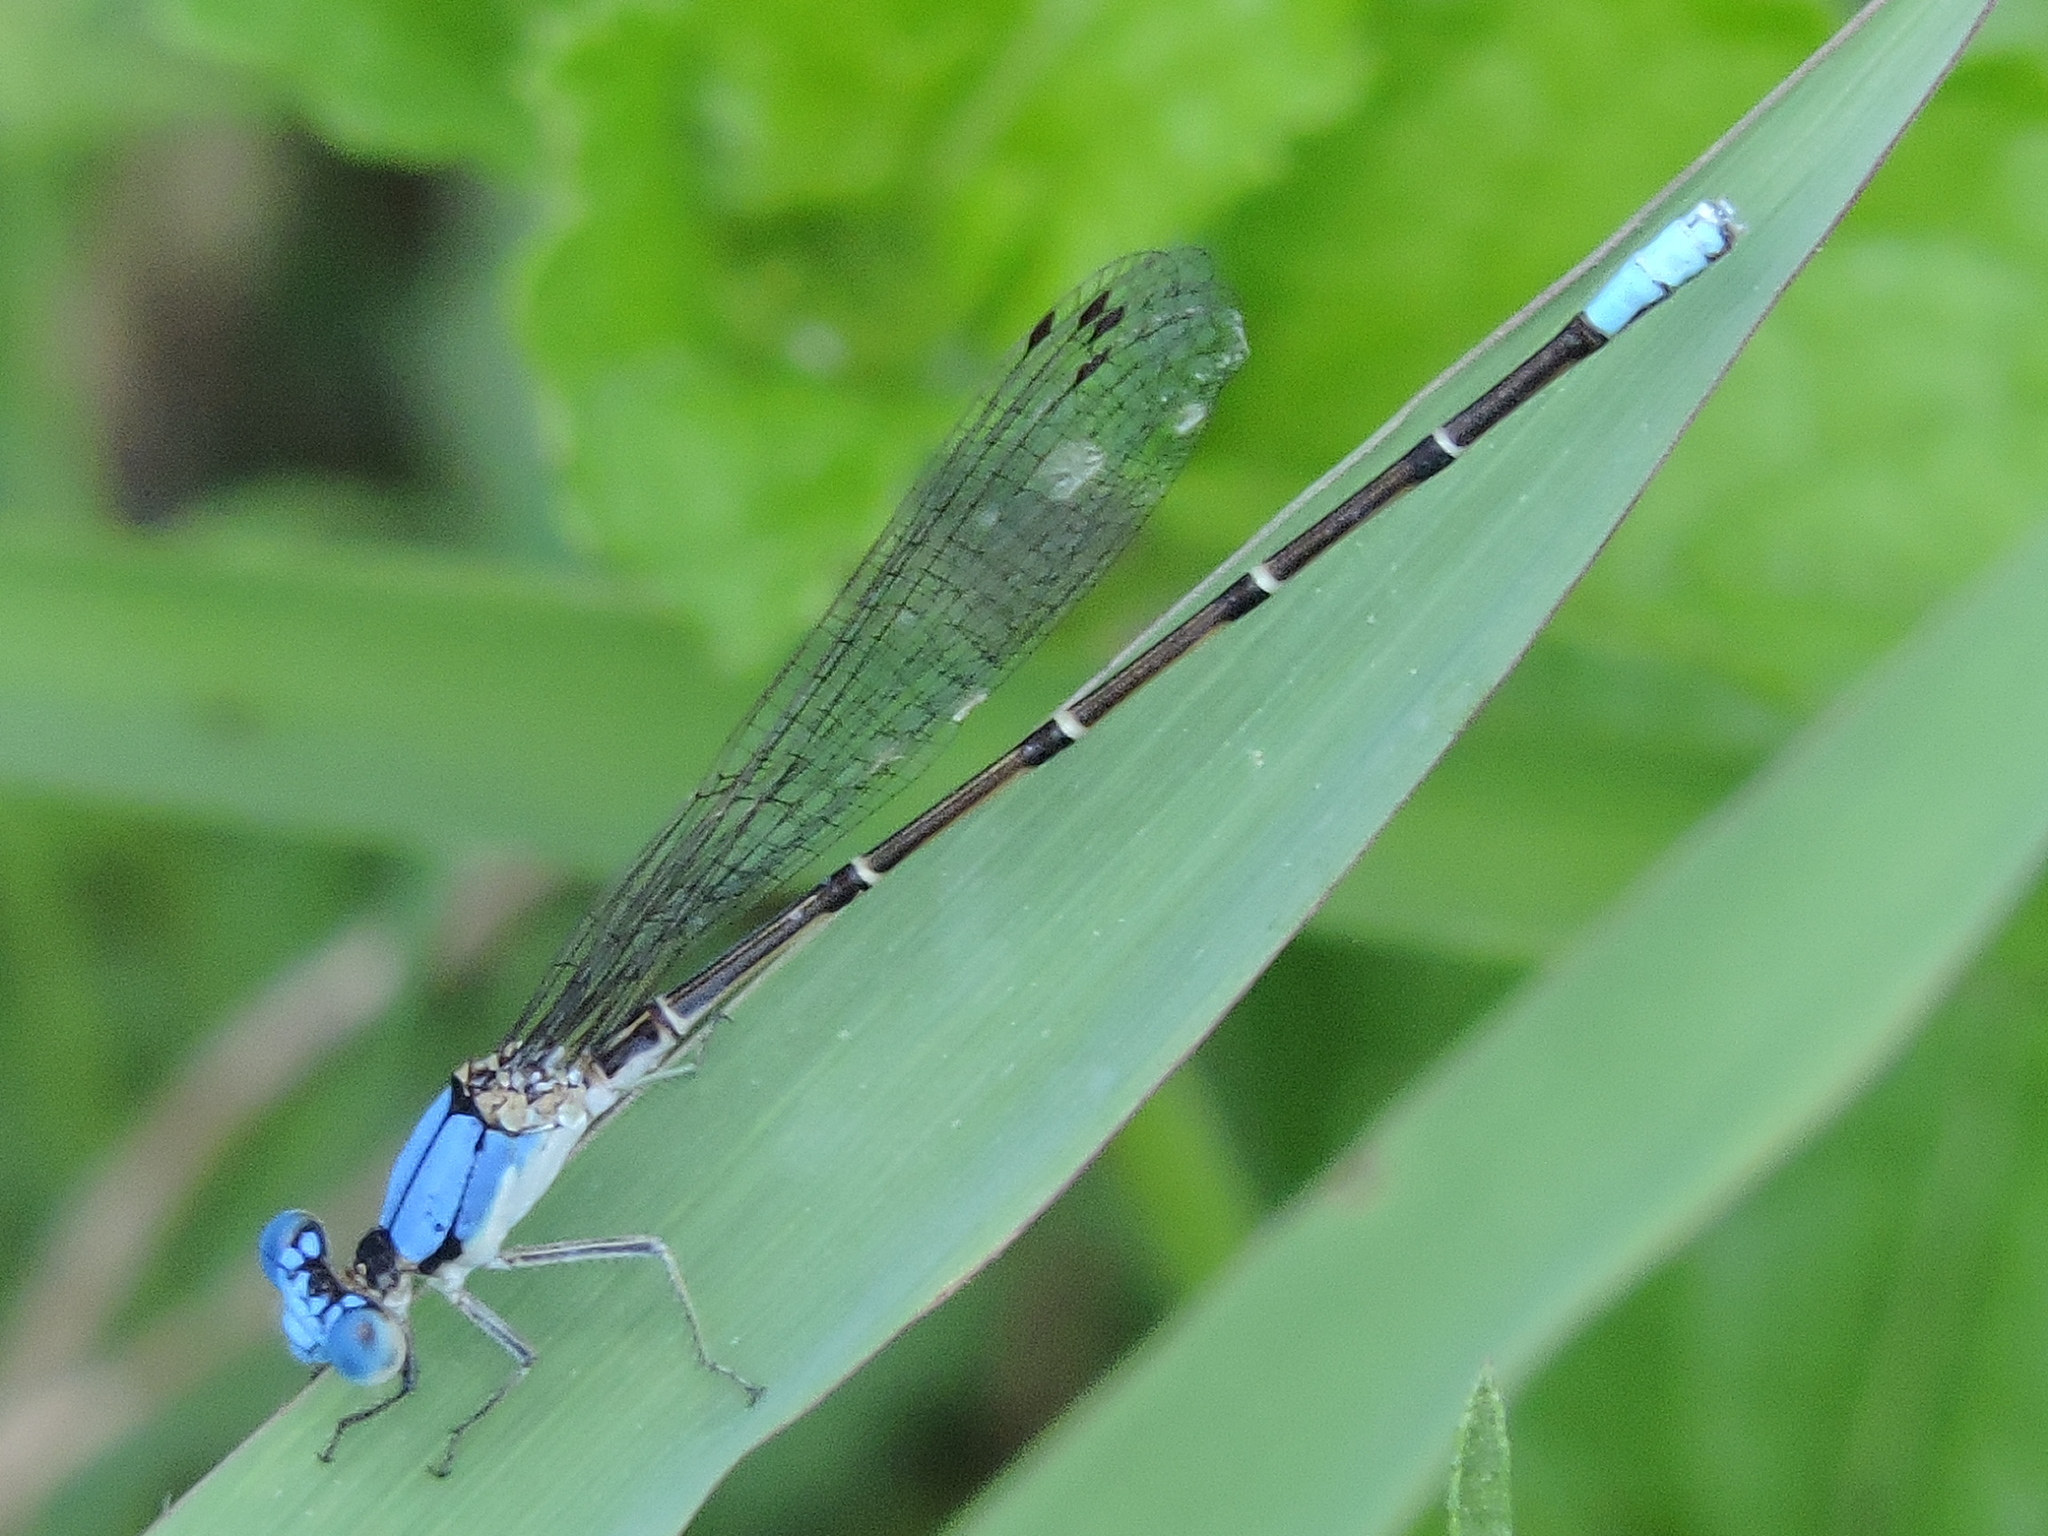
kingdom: Animalia
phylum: Arthropoda
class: Insecta
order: Odonata
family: Coenagrionidae
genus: Argia
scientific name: Argia apicalis
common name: Blue-fronted dancer
